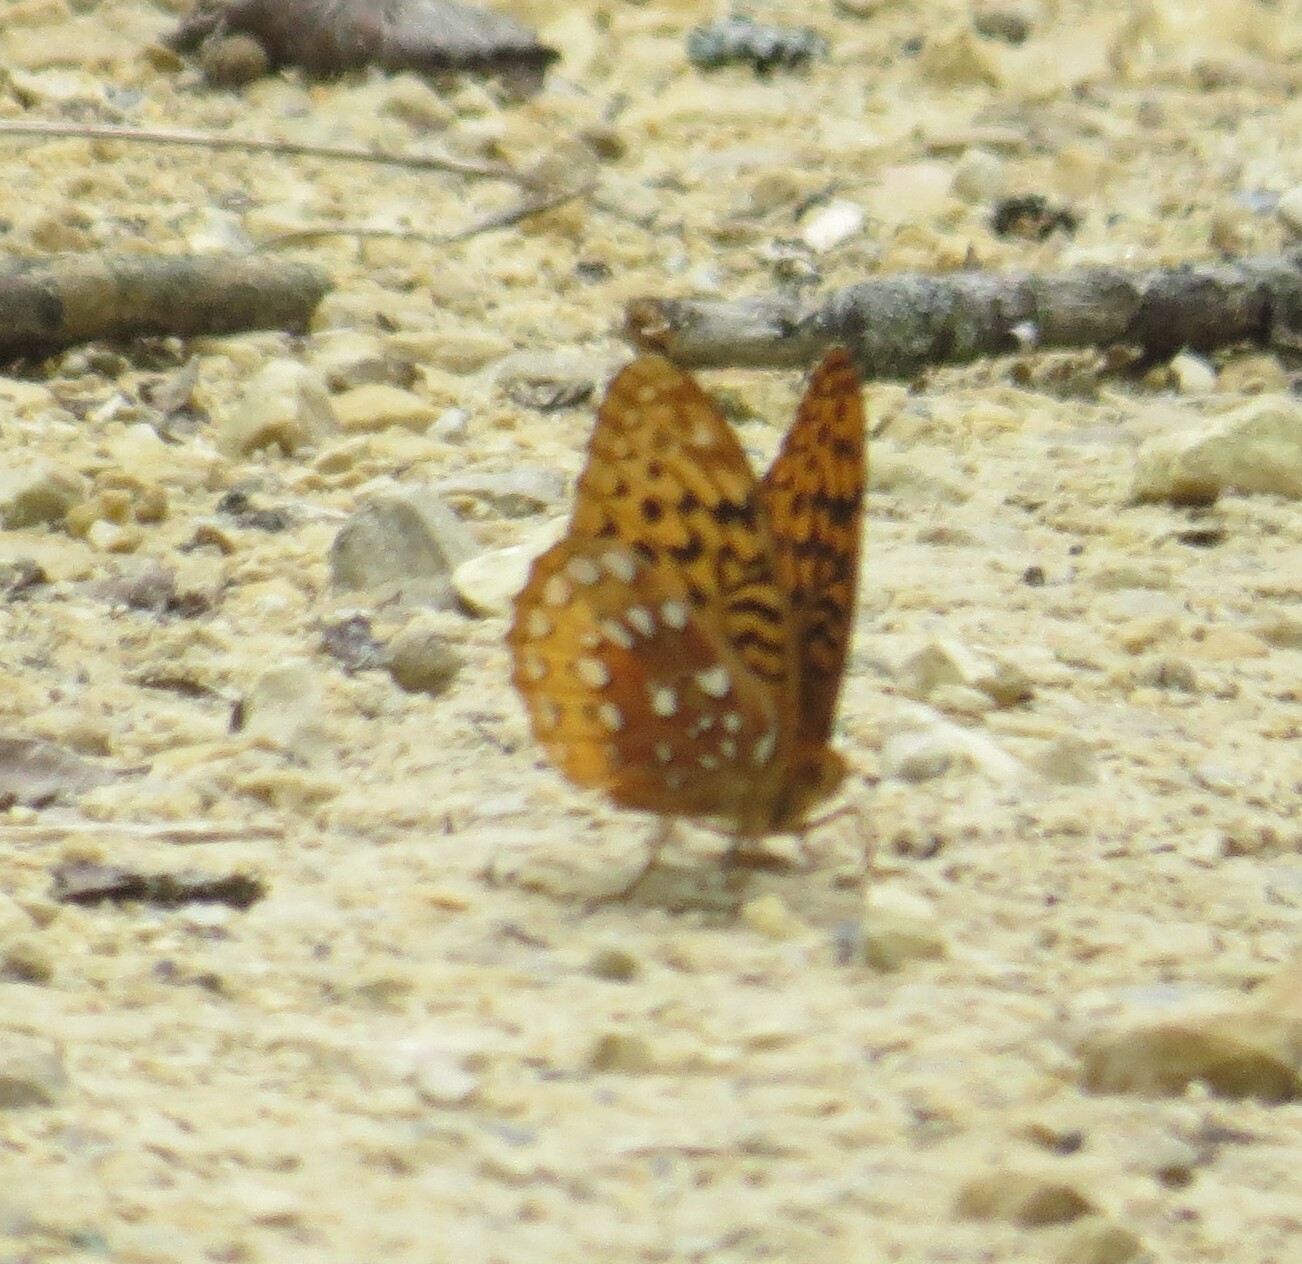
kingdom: Animalia
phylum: Arthropoda
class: Insecta
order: Lepidoptera
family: Nymphalidae
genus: Speyeria
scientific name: Speyeria cybele
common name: Great spangled fritillary
